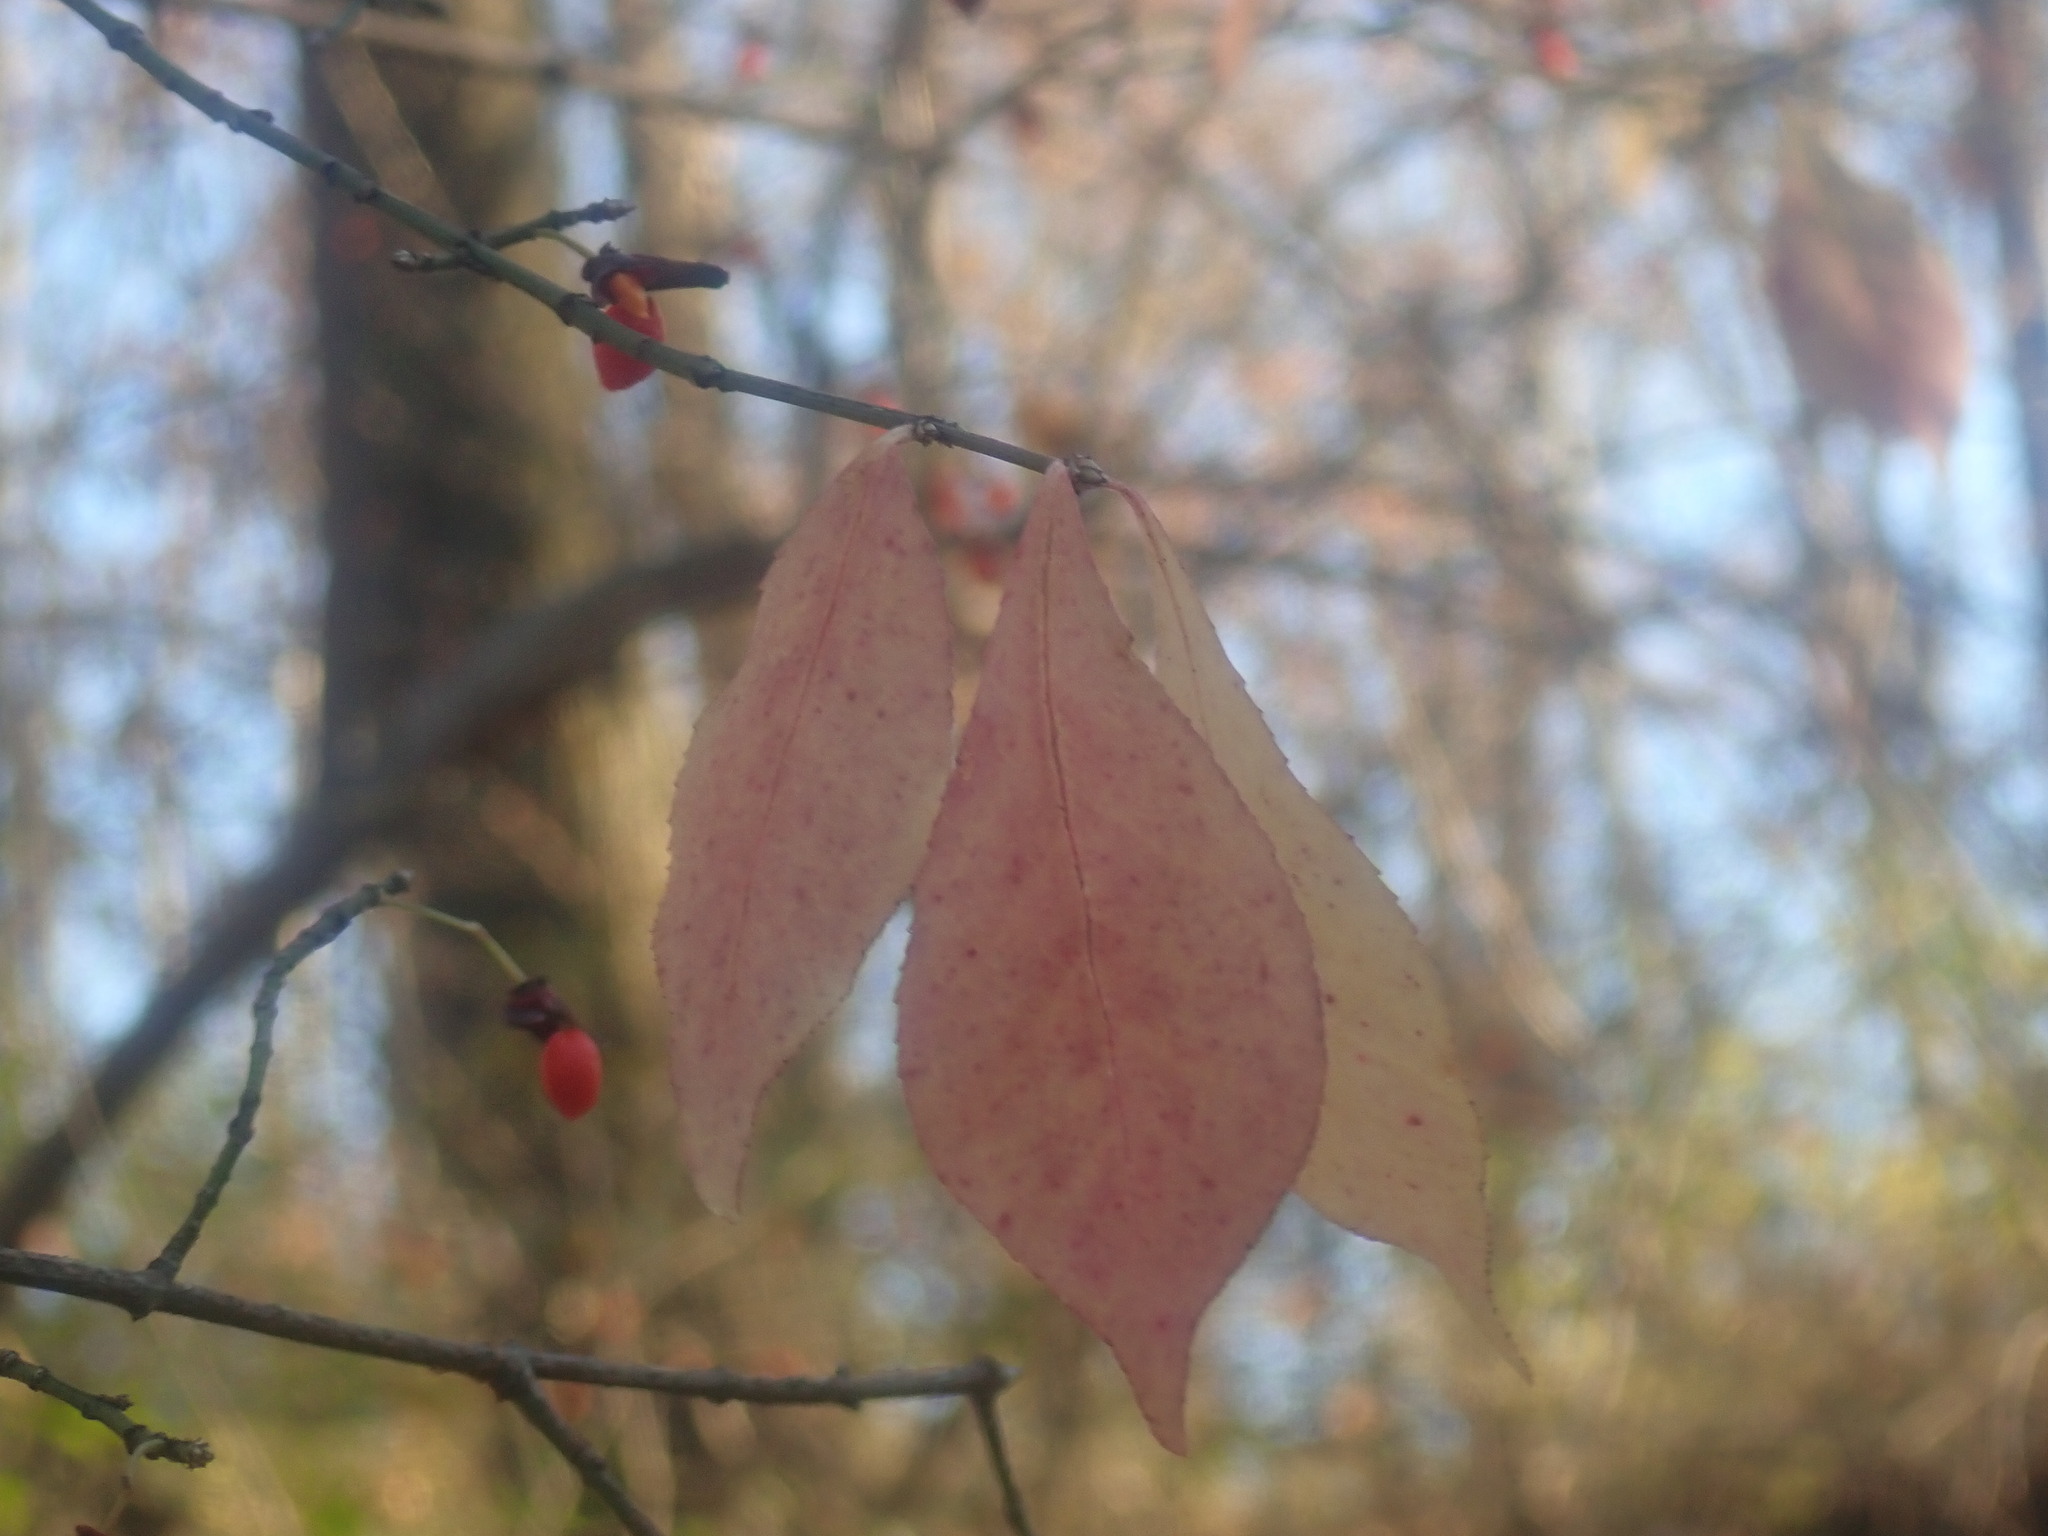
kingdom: Plantae
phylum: Tracheophyta
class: Magnoliopsida
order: Celastrales
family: Celastraceae
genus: Euonymus
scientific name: Euonymus alatus
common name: Winged euonymus
